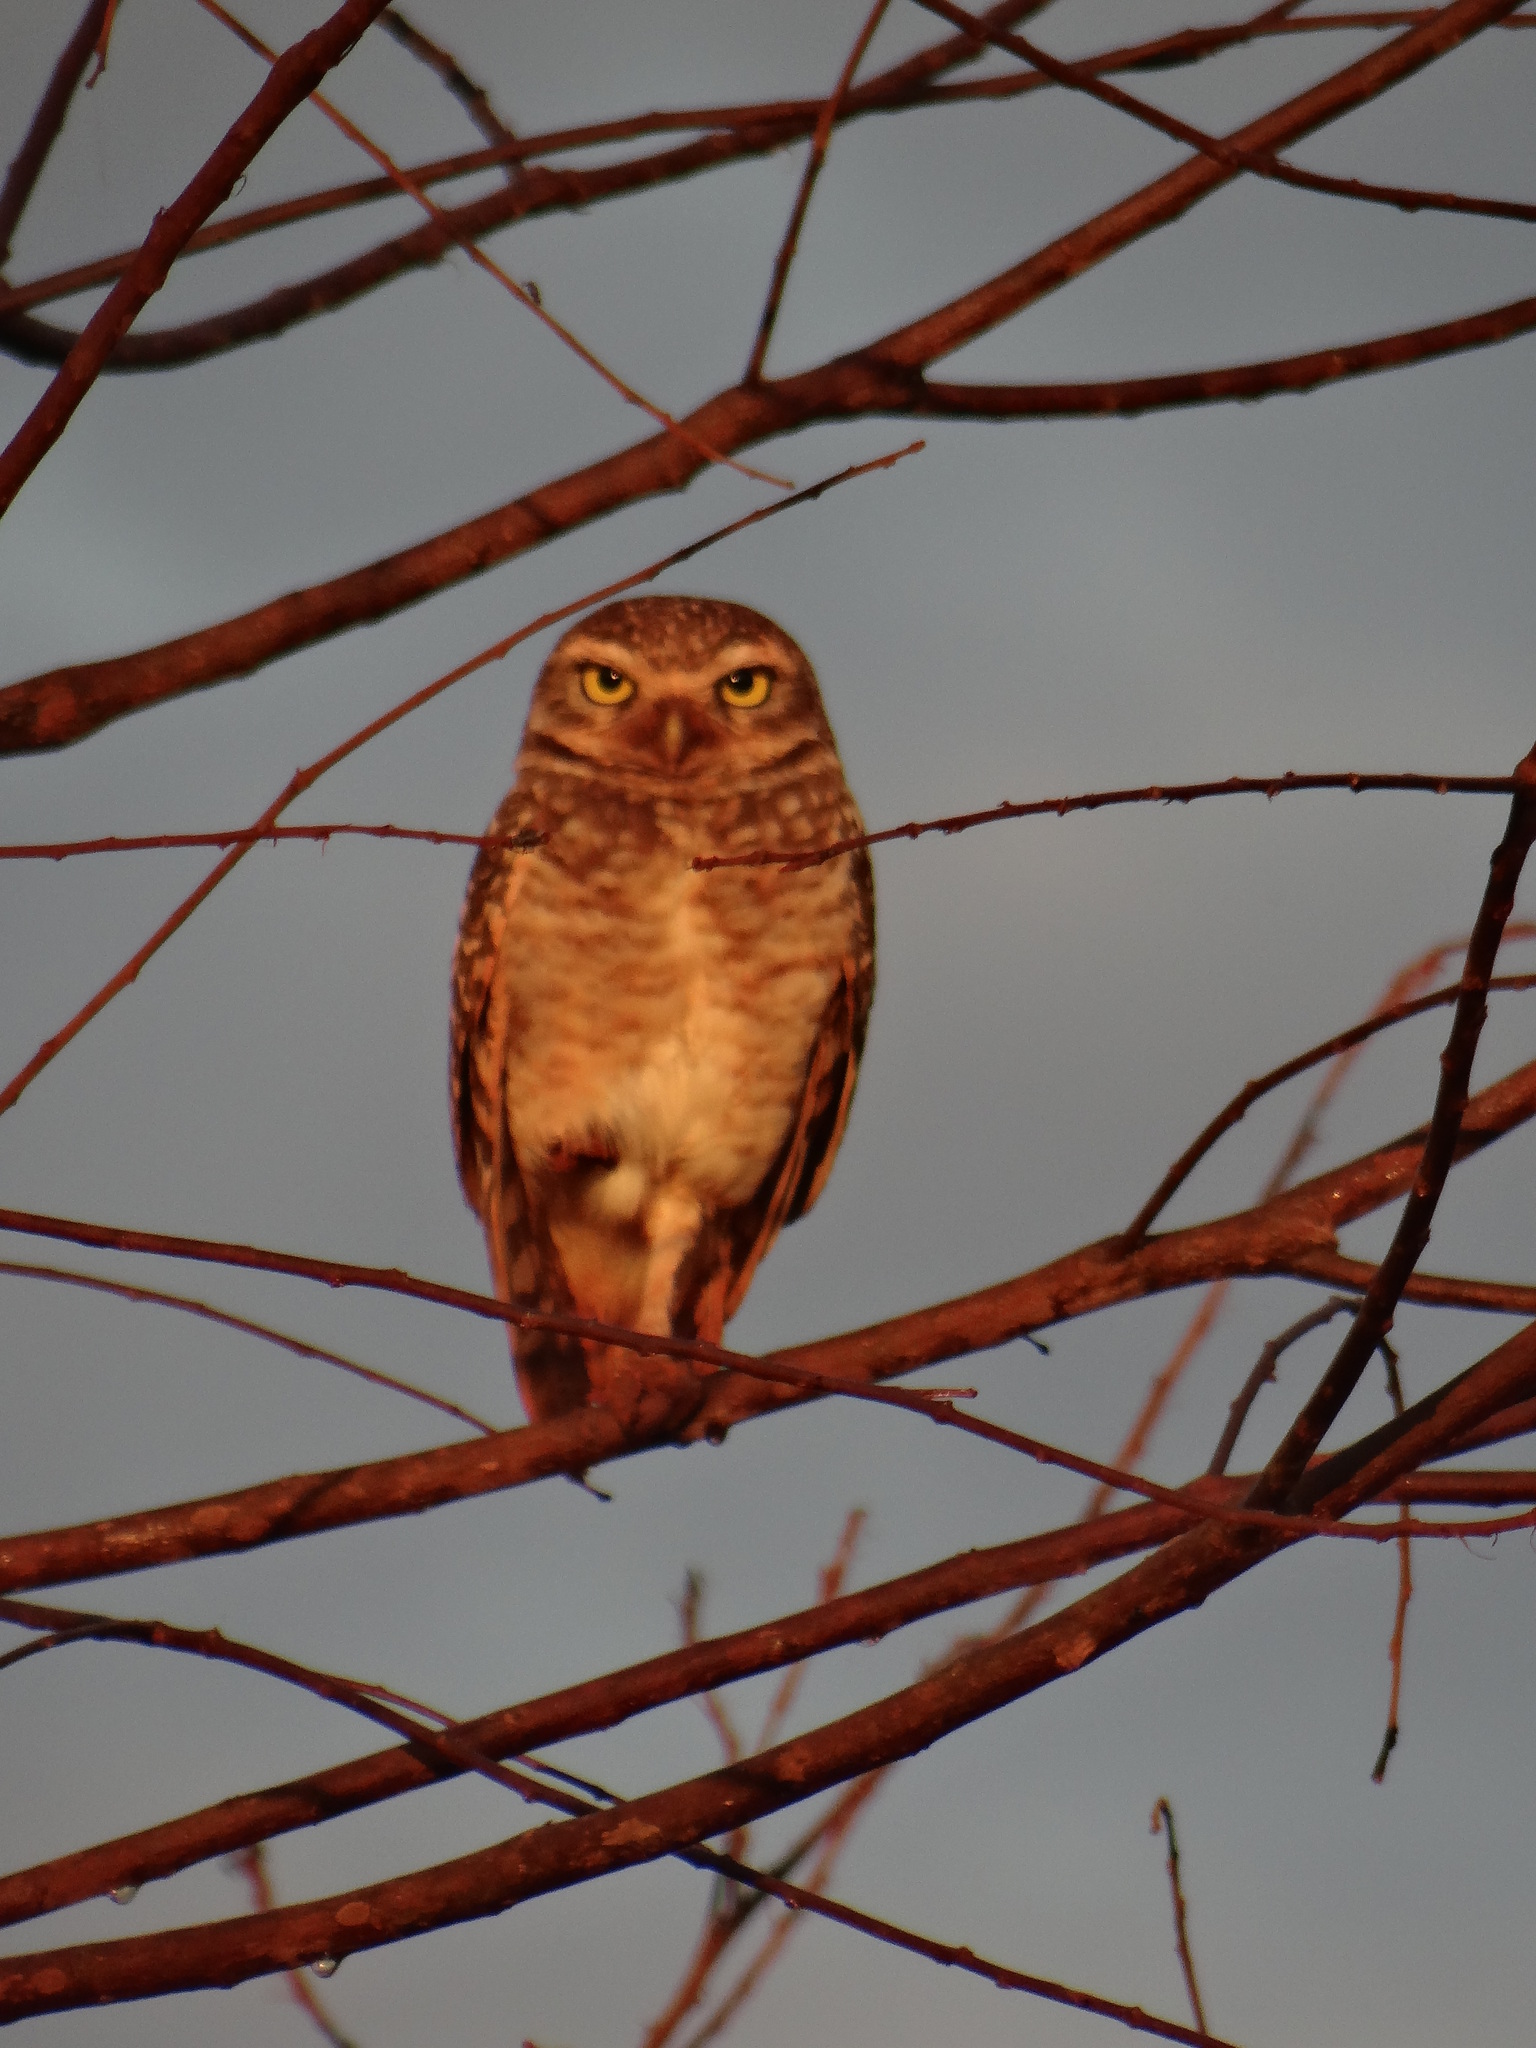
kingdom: Animalia
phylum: Chordata
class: Aves
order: Strigiformes
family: Strigidae
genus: Athene
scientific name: Athene cunicularia
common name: Burrowing owl
